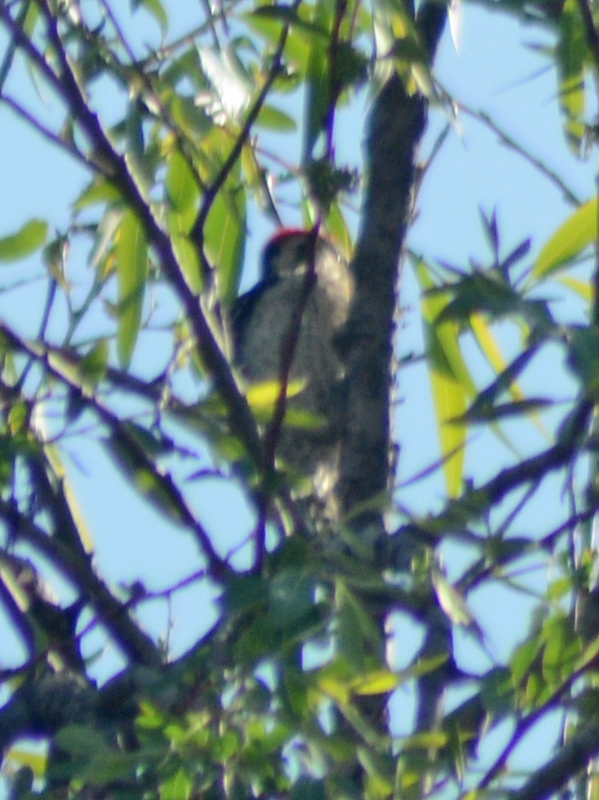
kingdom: Animalia
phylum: Chordata
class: Aves
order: Piciformes
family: Picidae
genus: Dryobates
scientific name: Dryobates scalaris
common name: Ladder-backed woodpecker
